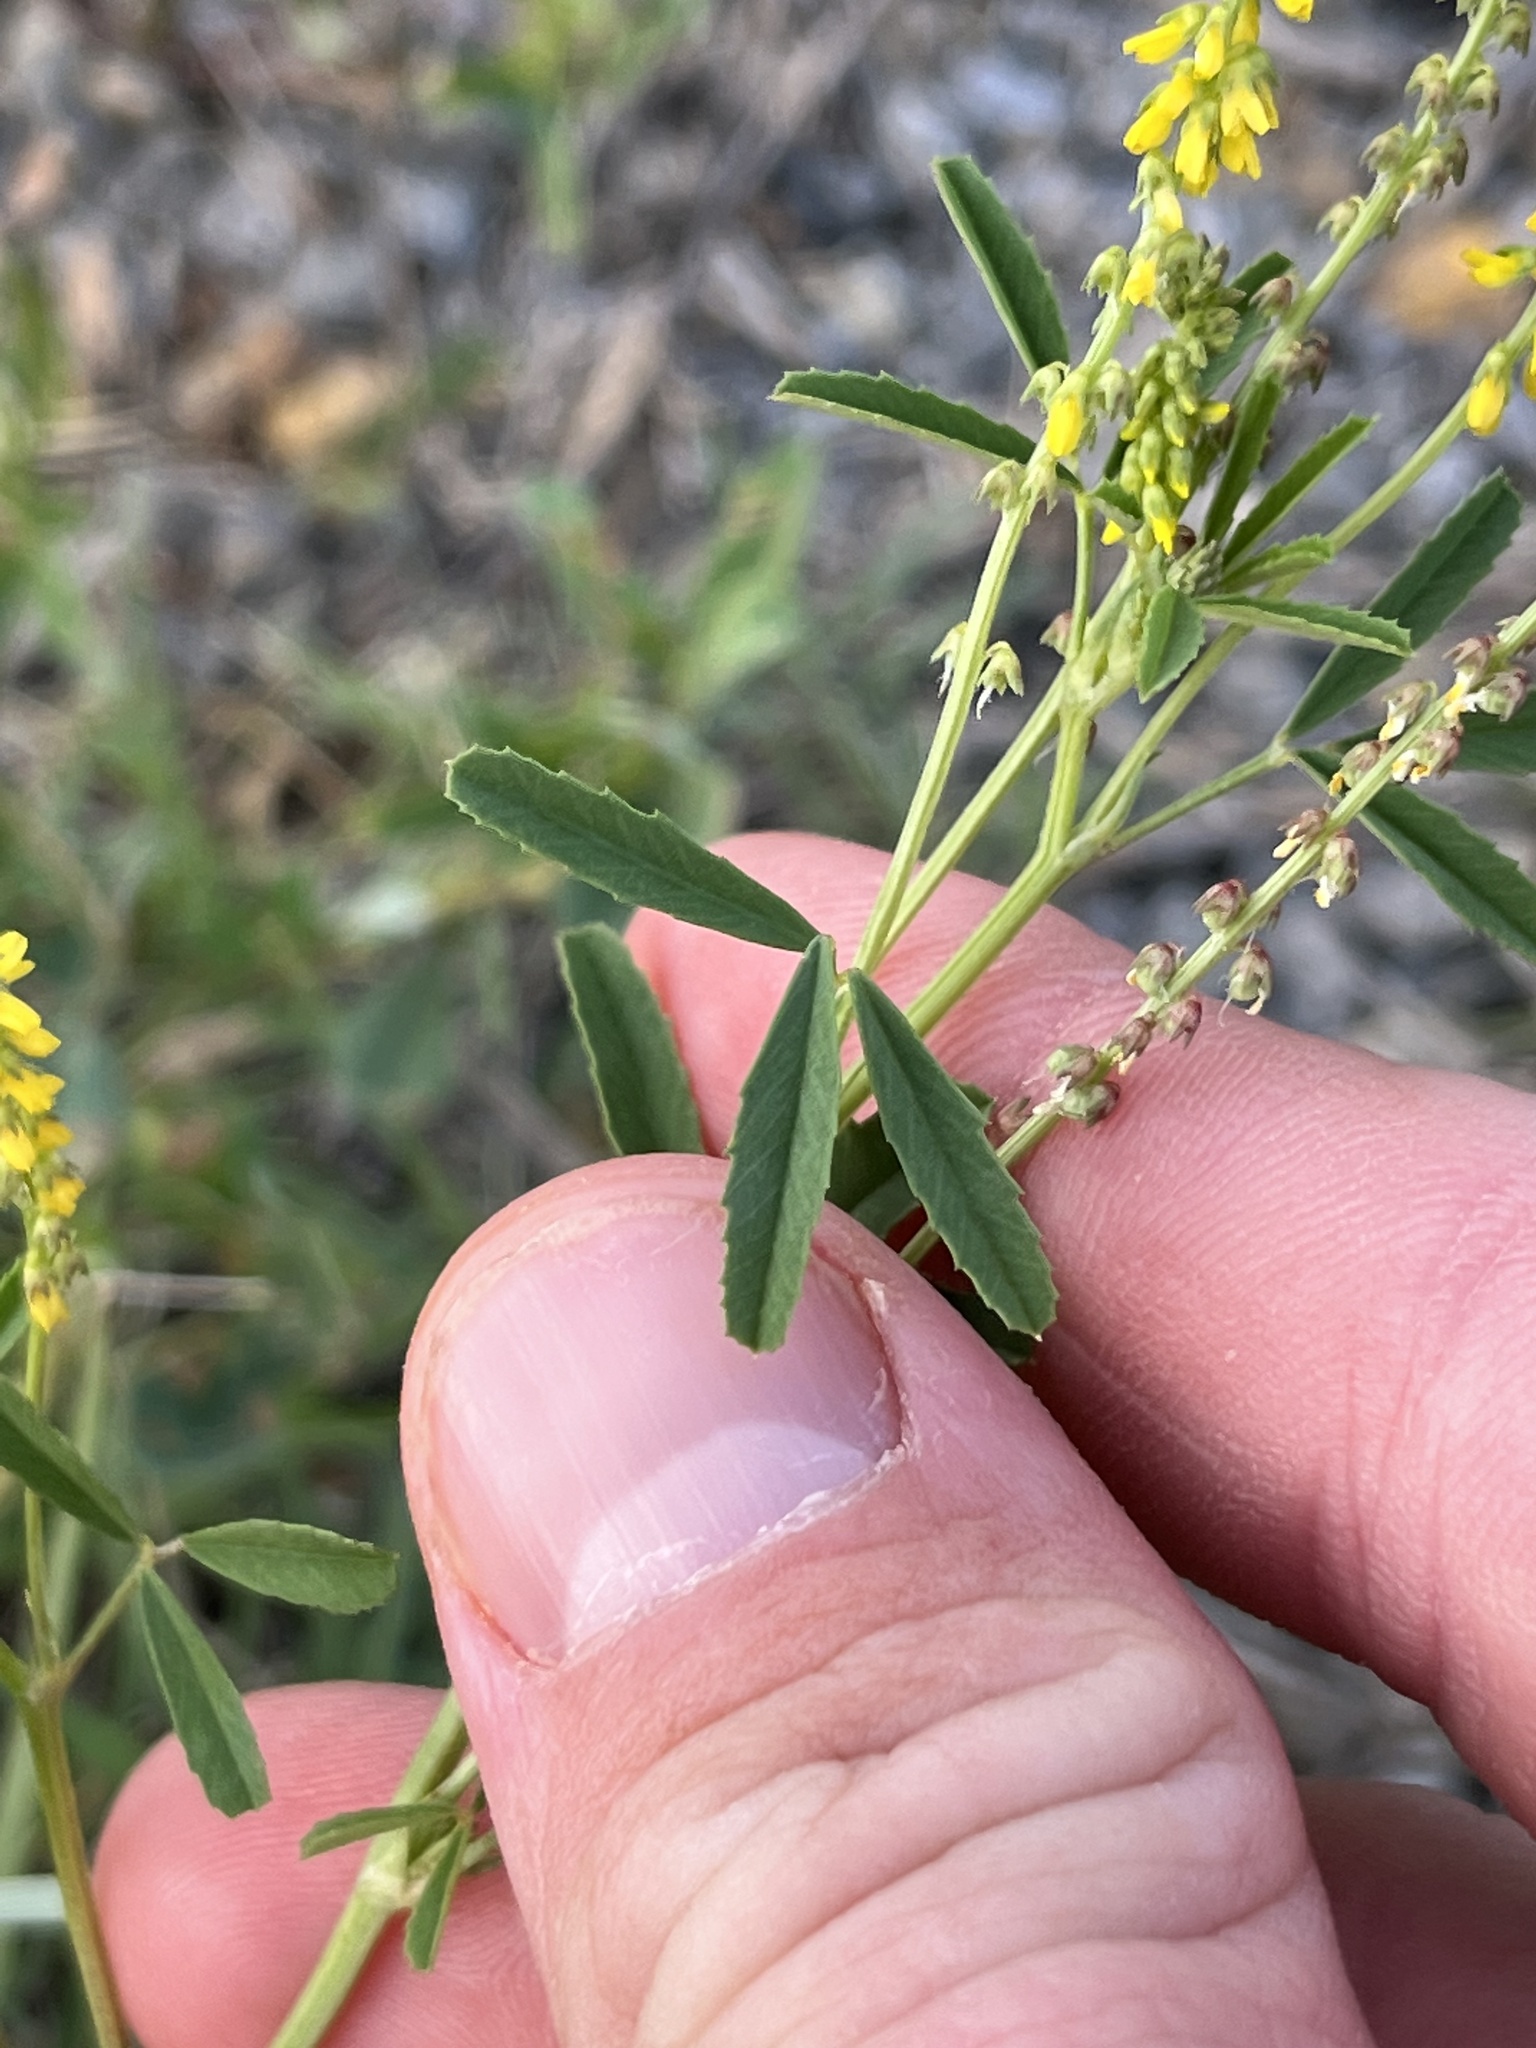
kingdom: Plantae
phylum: Tracheophyta
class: Magnoliopsida
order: Fabales
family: Fabaceae
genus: Melilotus
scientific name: Melilotus indicus
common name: Small melilot
